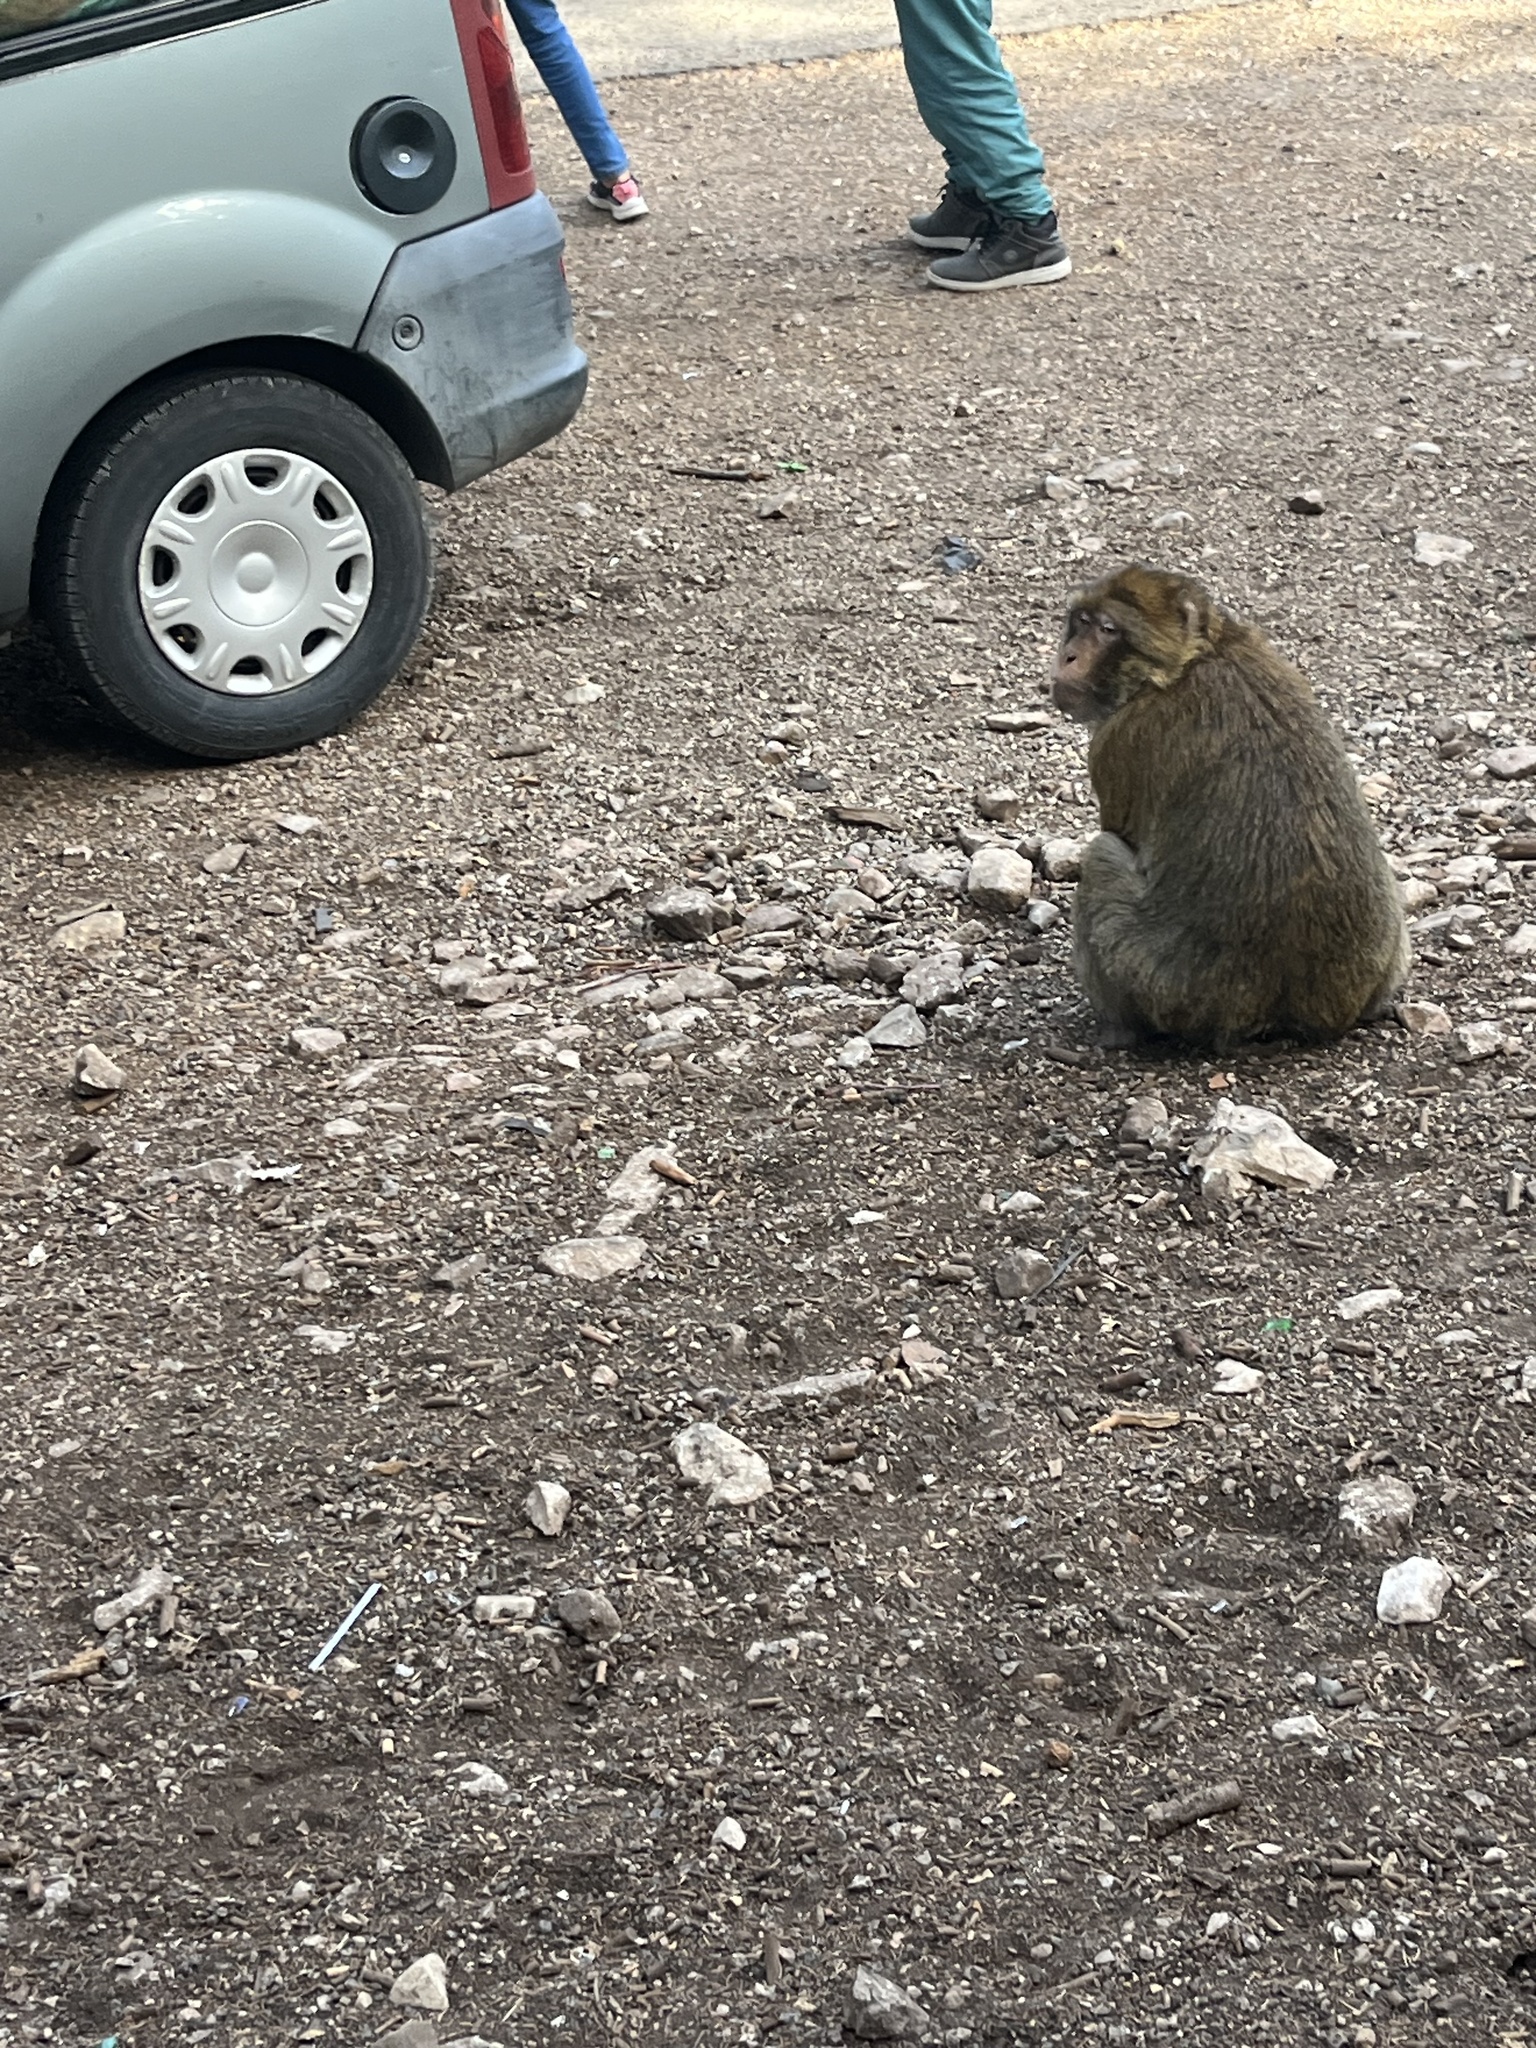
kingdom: Animalia
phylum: Chordata
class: Mammalia
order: Primates
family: Cercopithecidae
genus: Macaca
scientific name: Macaca sylvanus
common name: Barbary macaque
